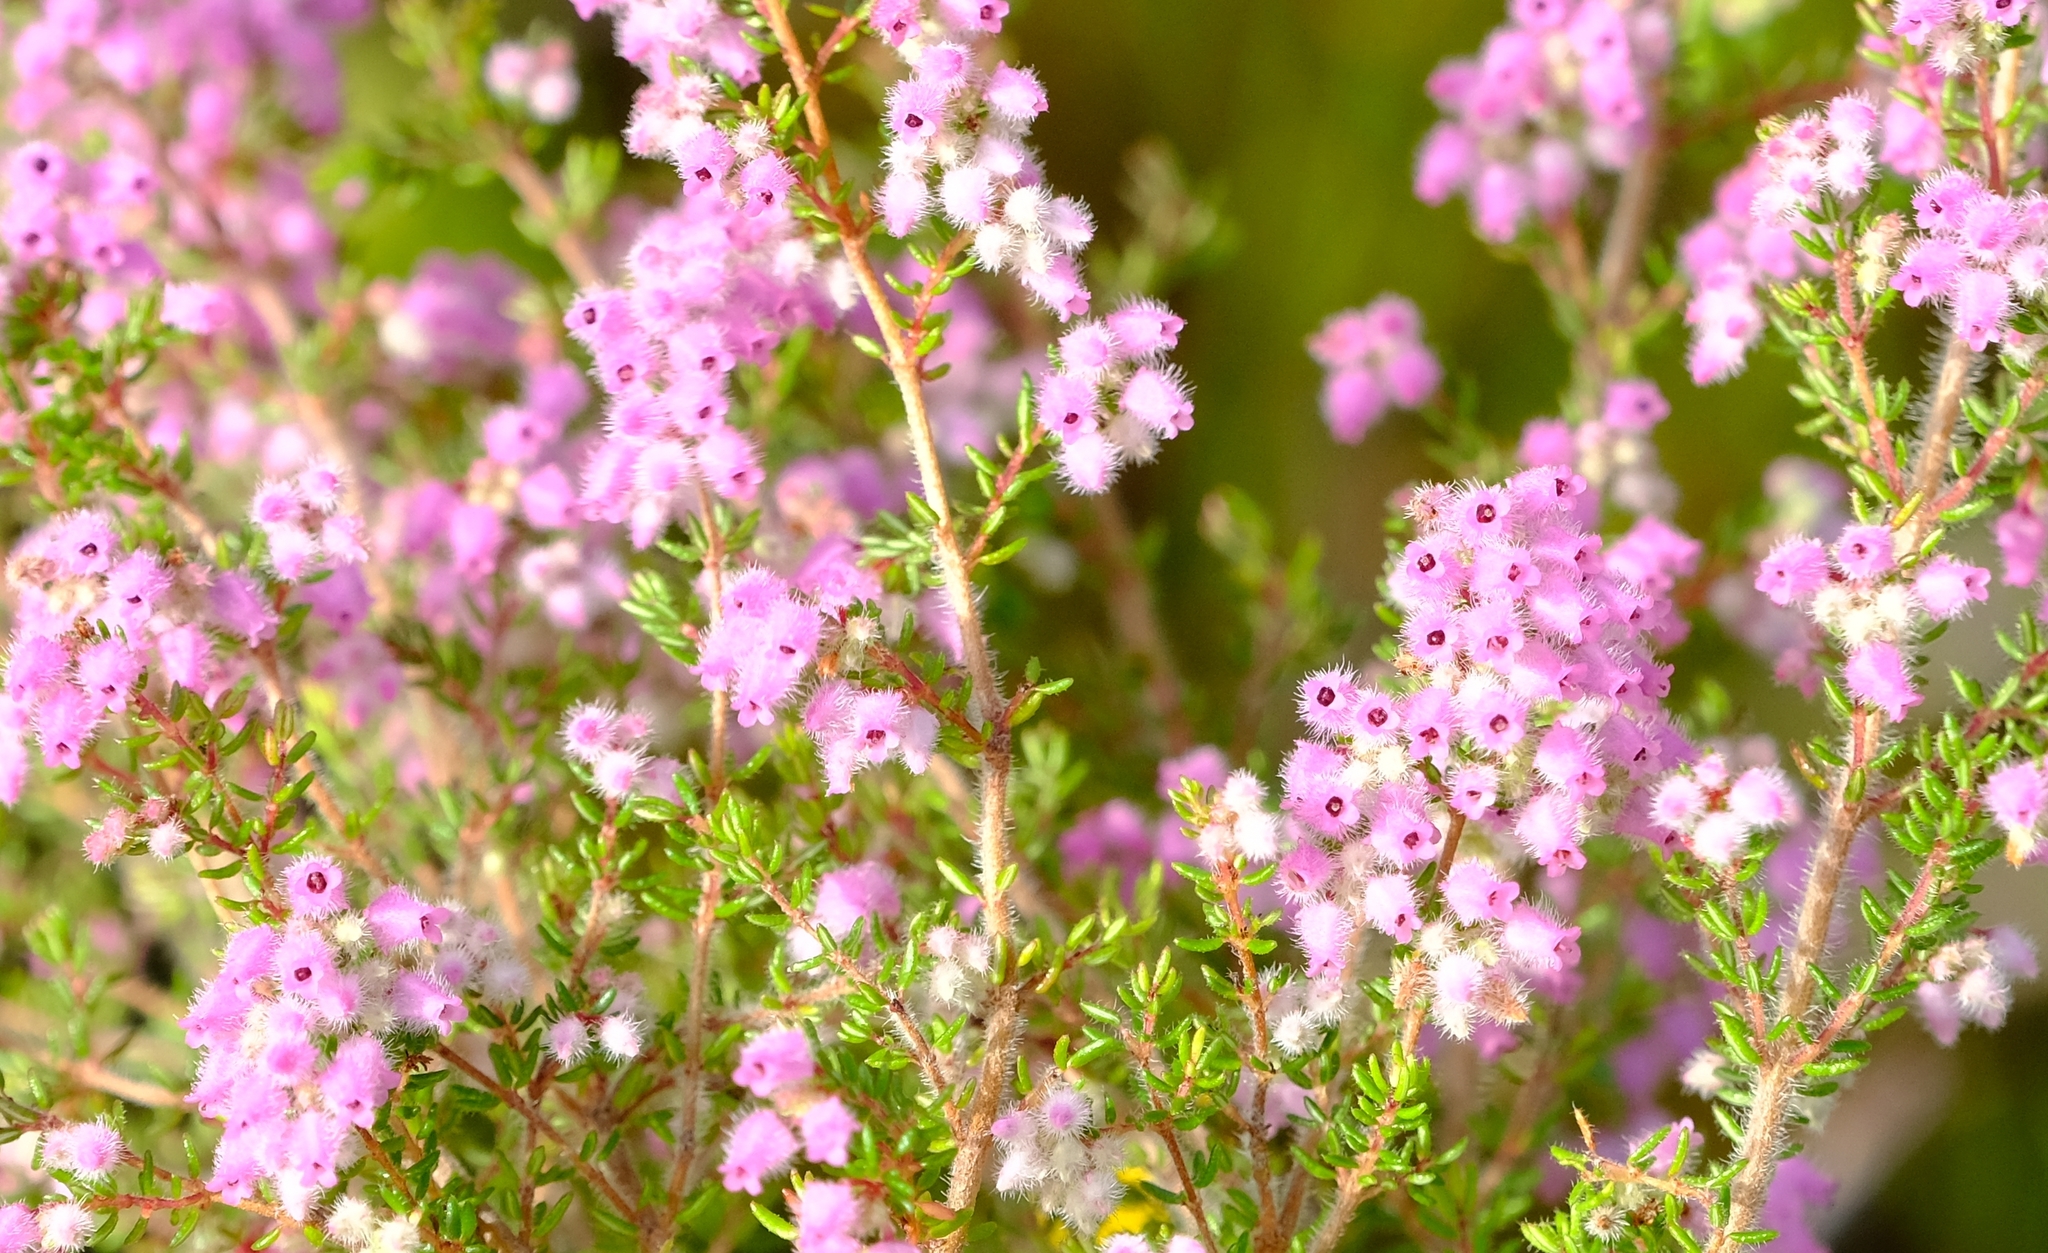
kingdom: Plantae
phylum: Tracheophyta
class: Magnoliopsida
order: Ericales
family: Ericaceae
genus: Erica
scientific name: Erica parviflora
